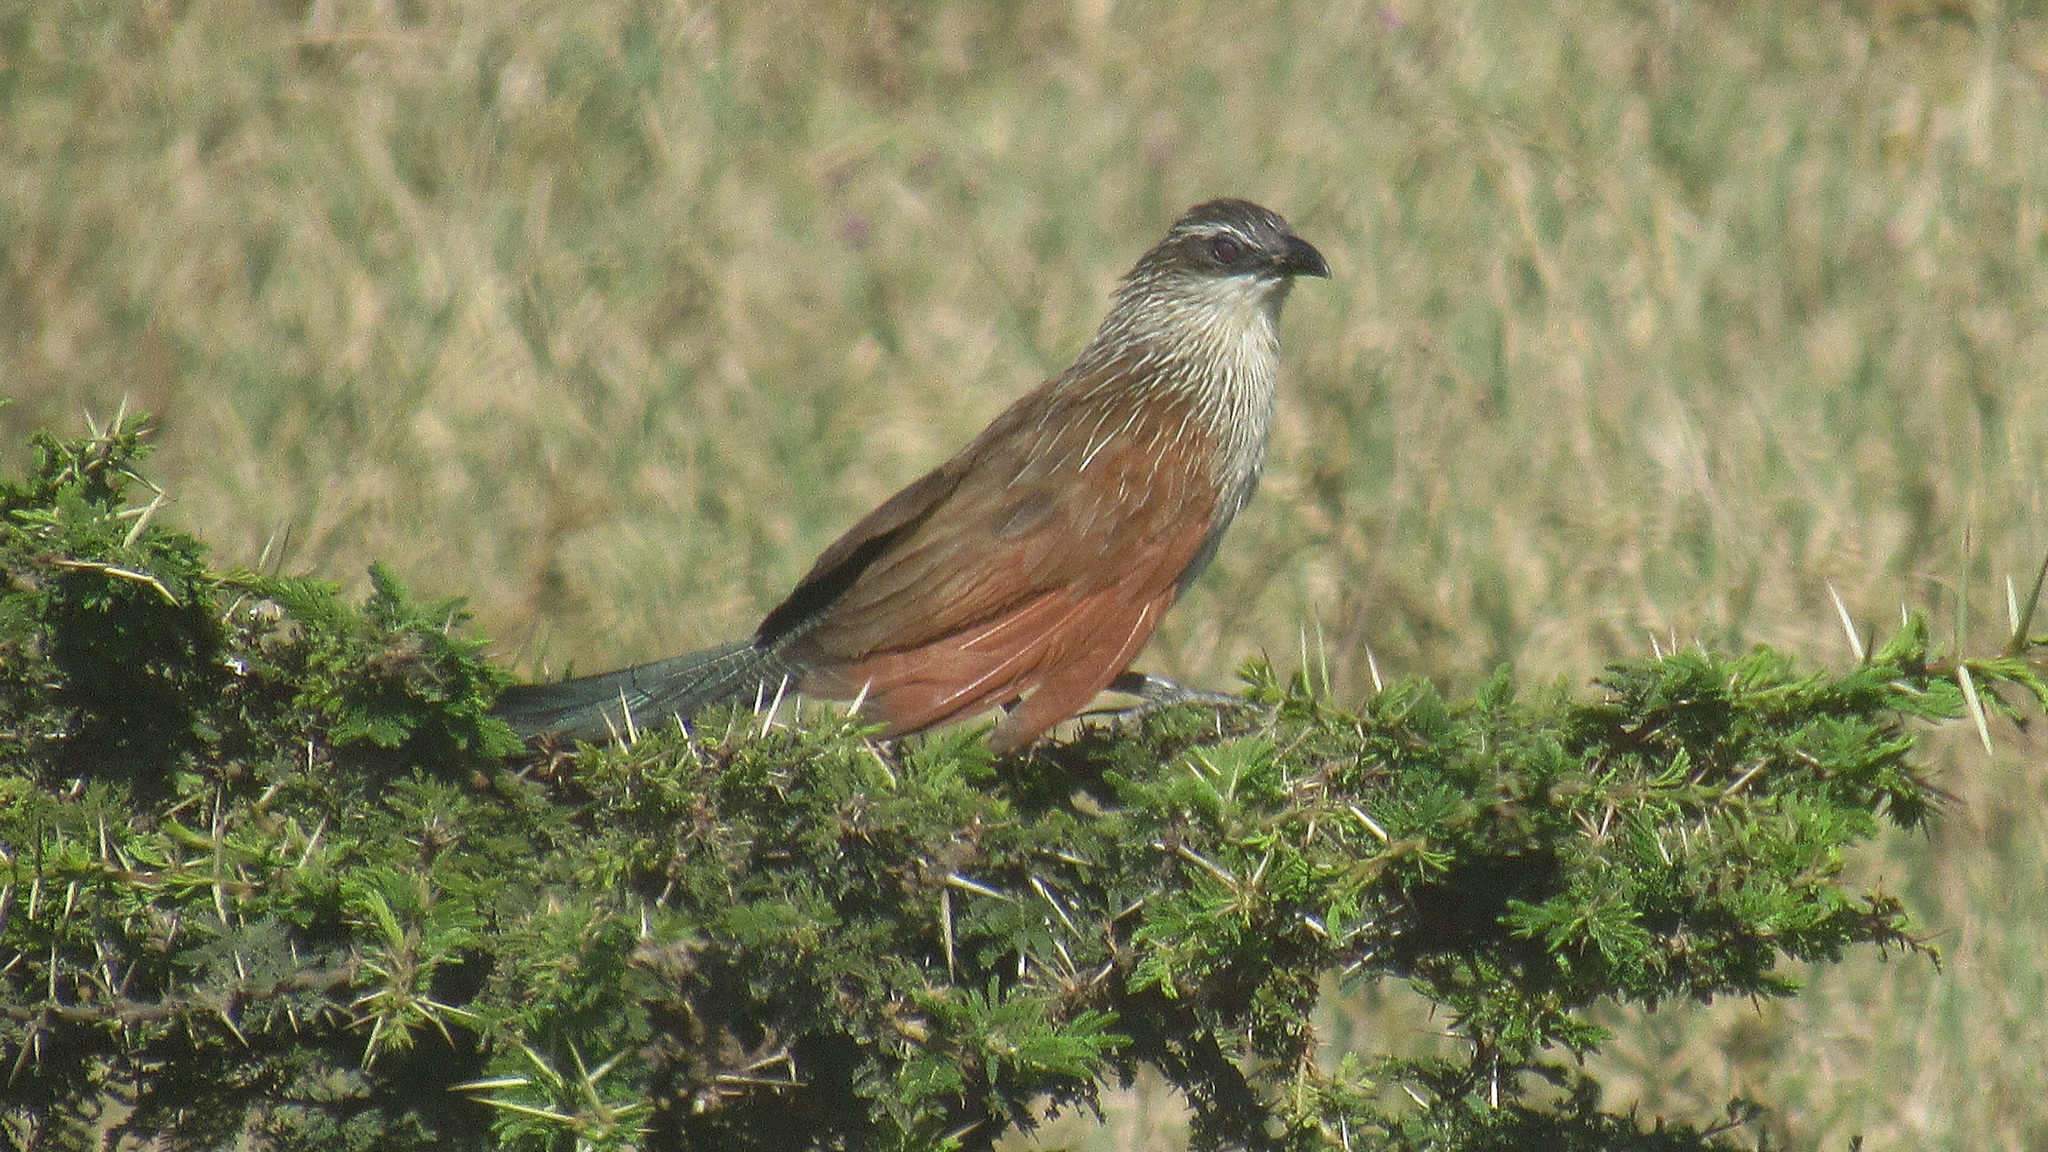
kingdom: Animalia
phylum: Chordata
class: Aves
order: Cuculiformes
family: Cuculidae
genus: Centropus
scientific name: Centropus superciliosus
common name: White-browed coucal
